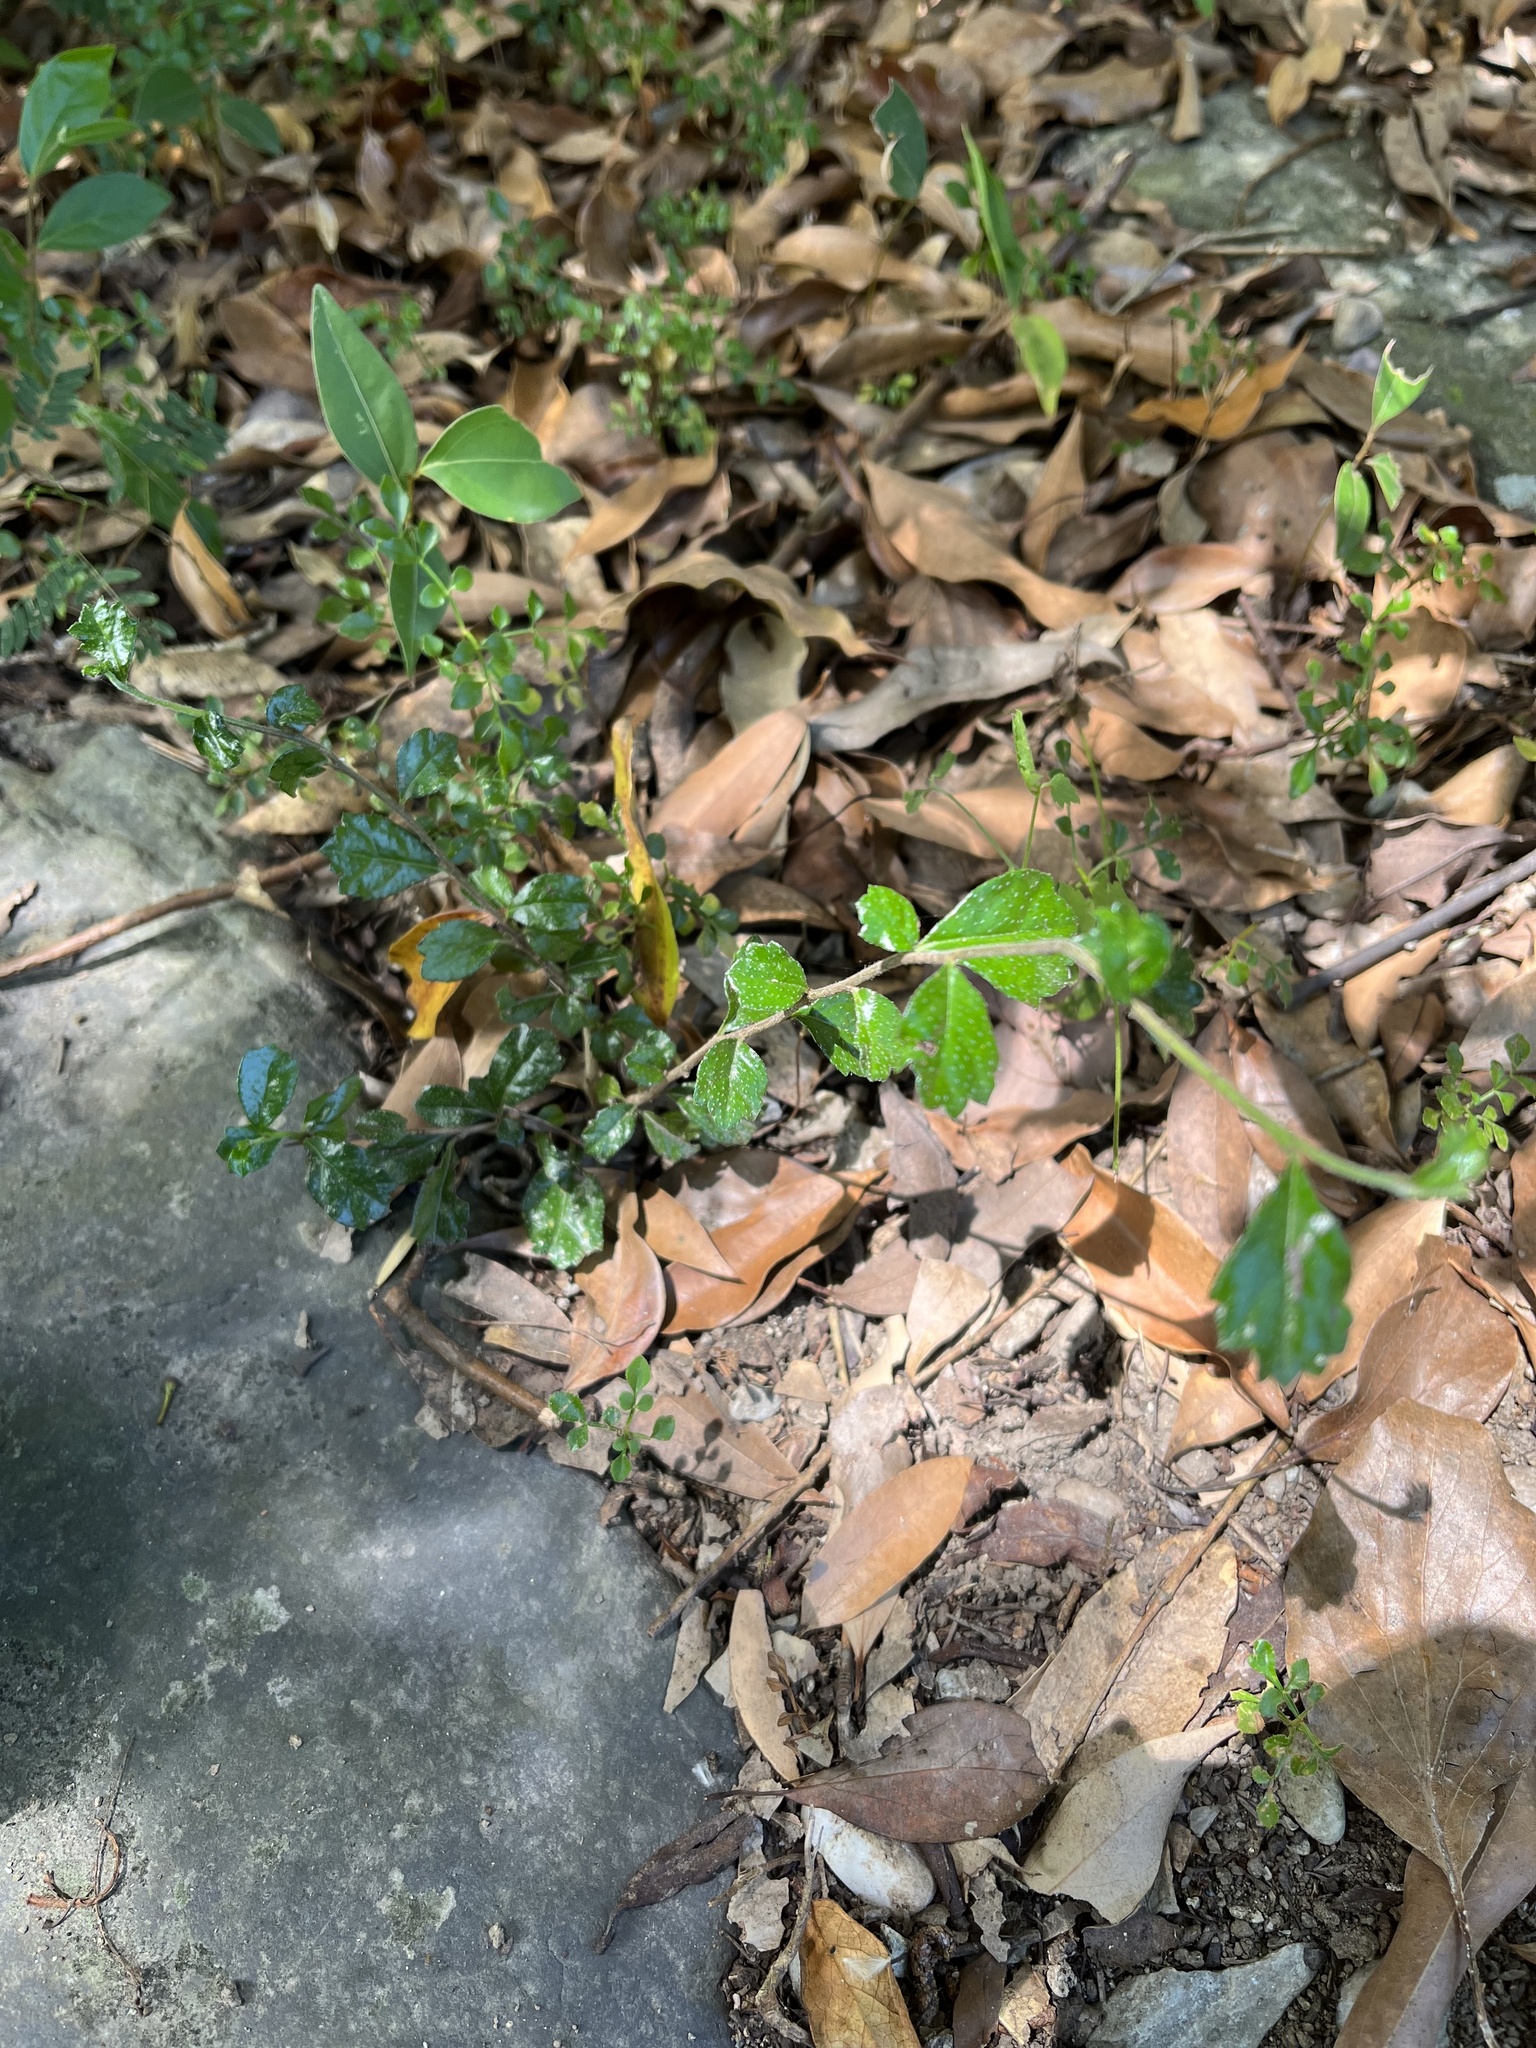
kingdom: Plantae
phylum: Tracheophyta
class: Magnoliopsida
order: Boraginales
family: Ehretiaceae
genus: Ehretia
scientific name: Ehretia microphylla
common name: Fukien-tea
